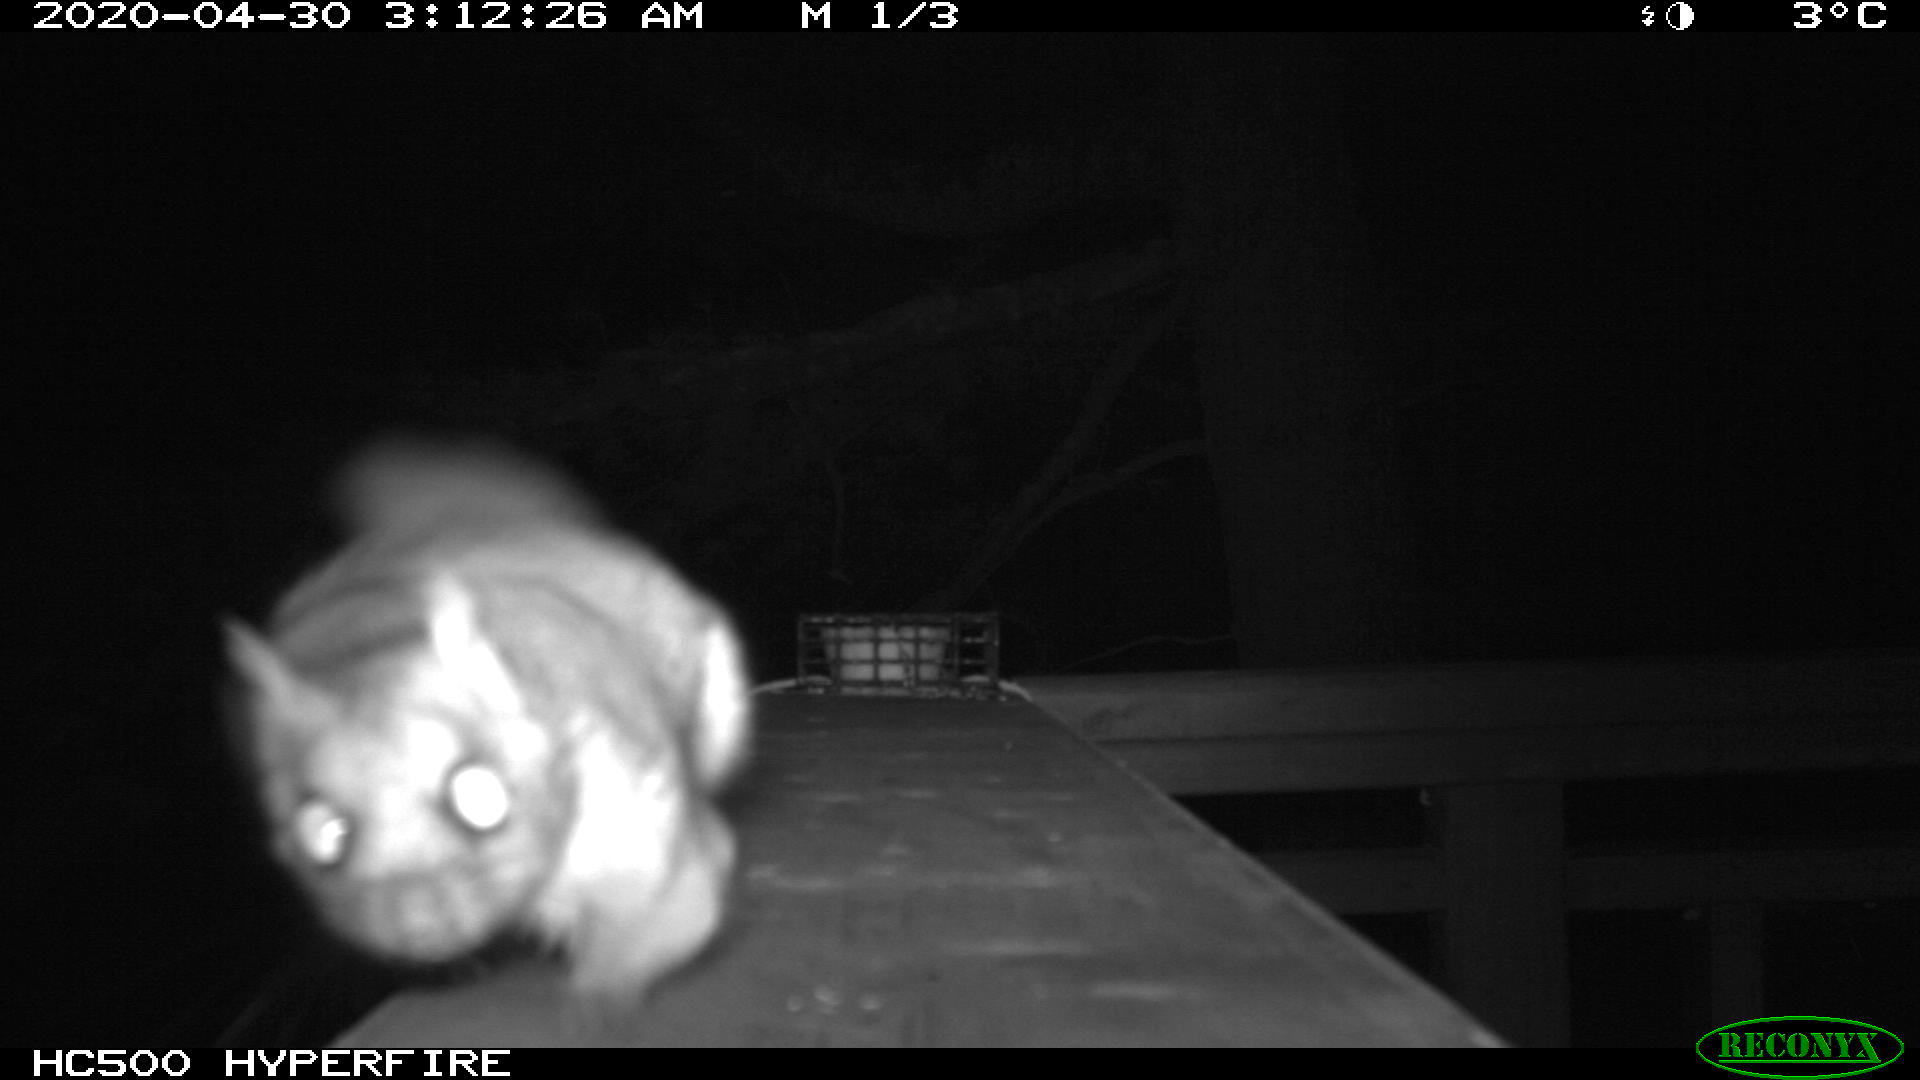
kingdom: Animalia
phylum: Chordata
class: Mammalia
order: Rodentia
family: Sciuridae
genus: Glaucomys
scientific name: Glaucomys sabrinus
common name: Northern flying squirrel
